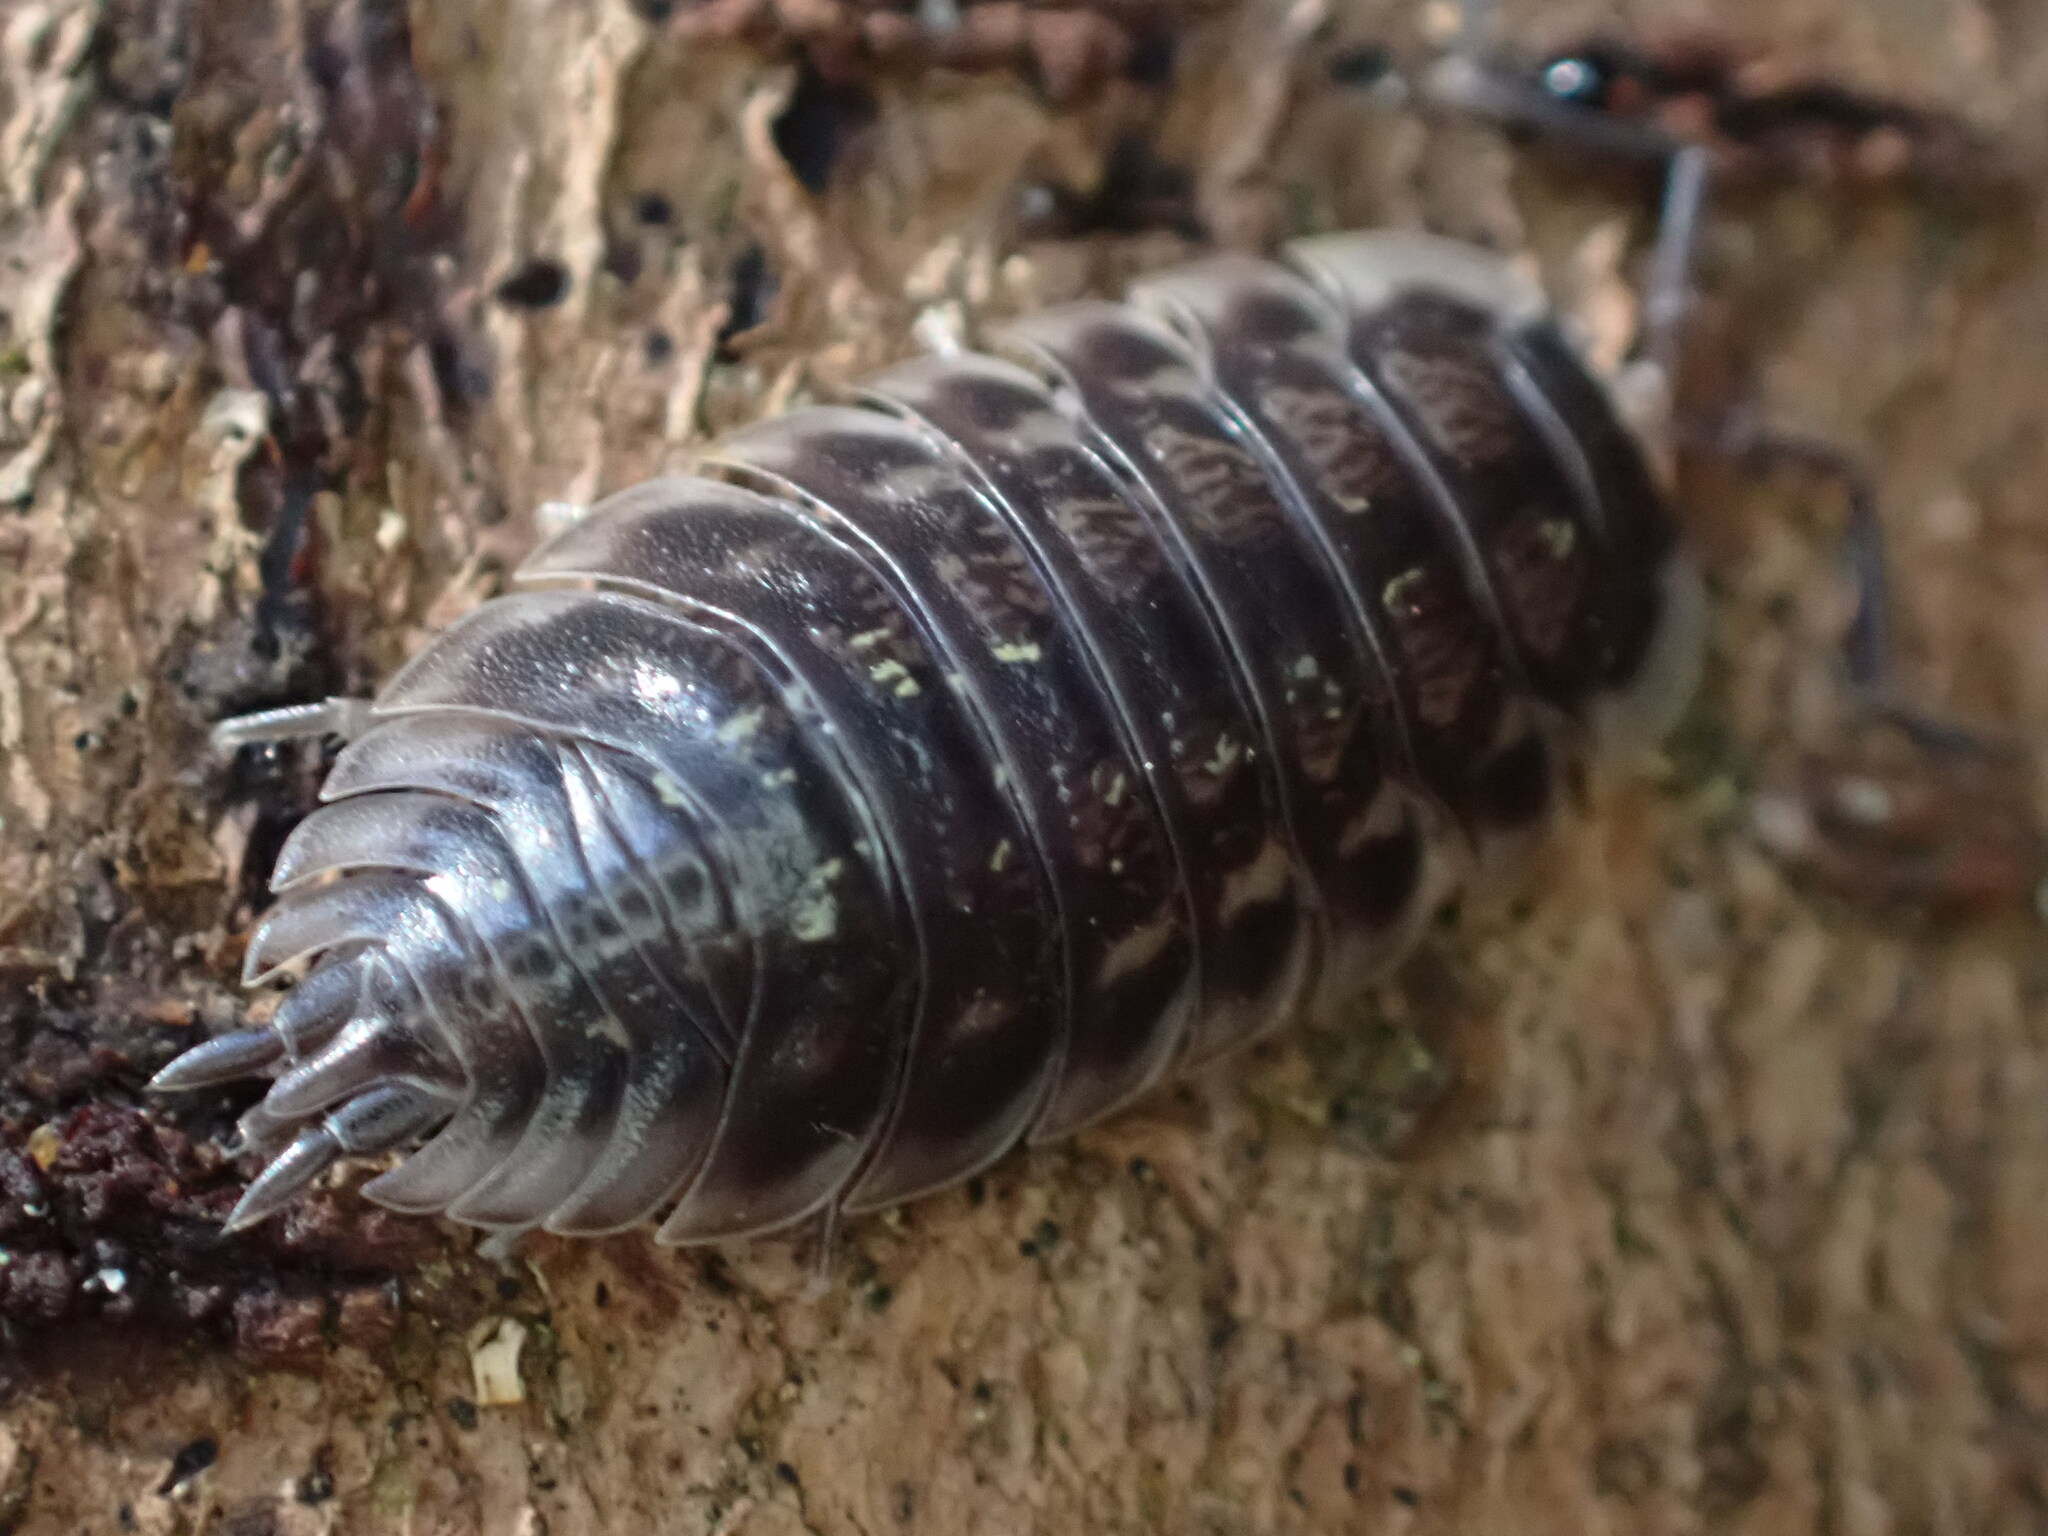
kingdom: Animalia
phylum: Arthropoda
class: Malacostraca
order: Isopoda
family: Oniscidae
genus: Oniscus
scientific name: Oniscus asellus
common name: Common shiny woodlouse
